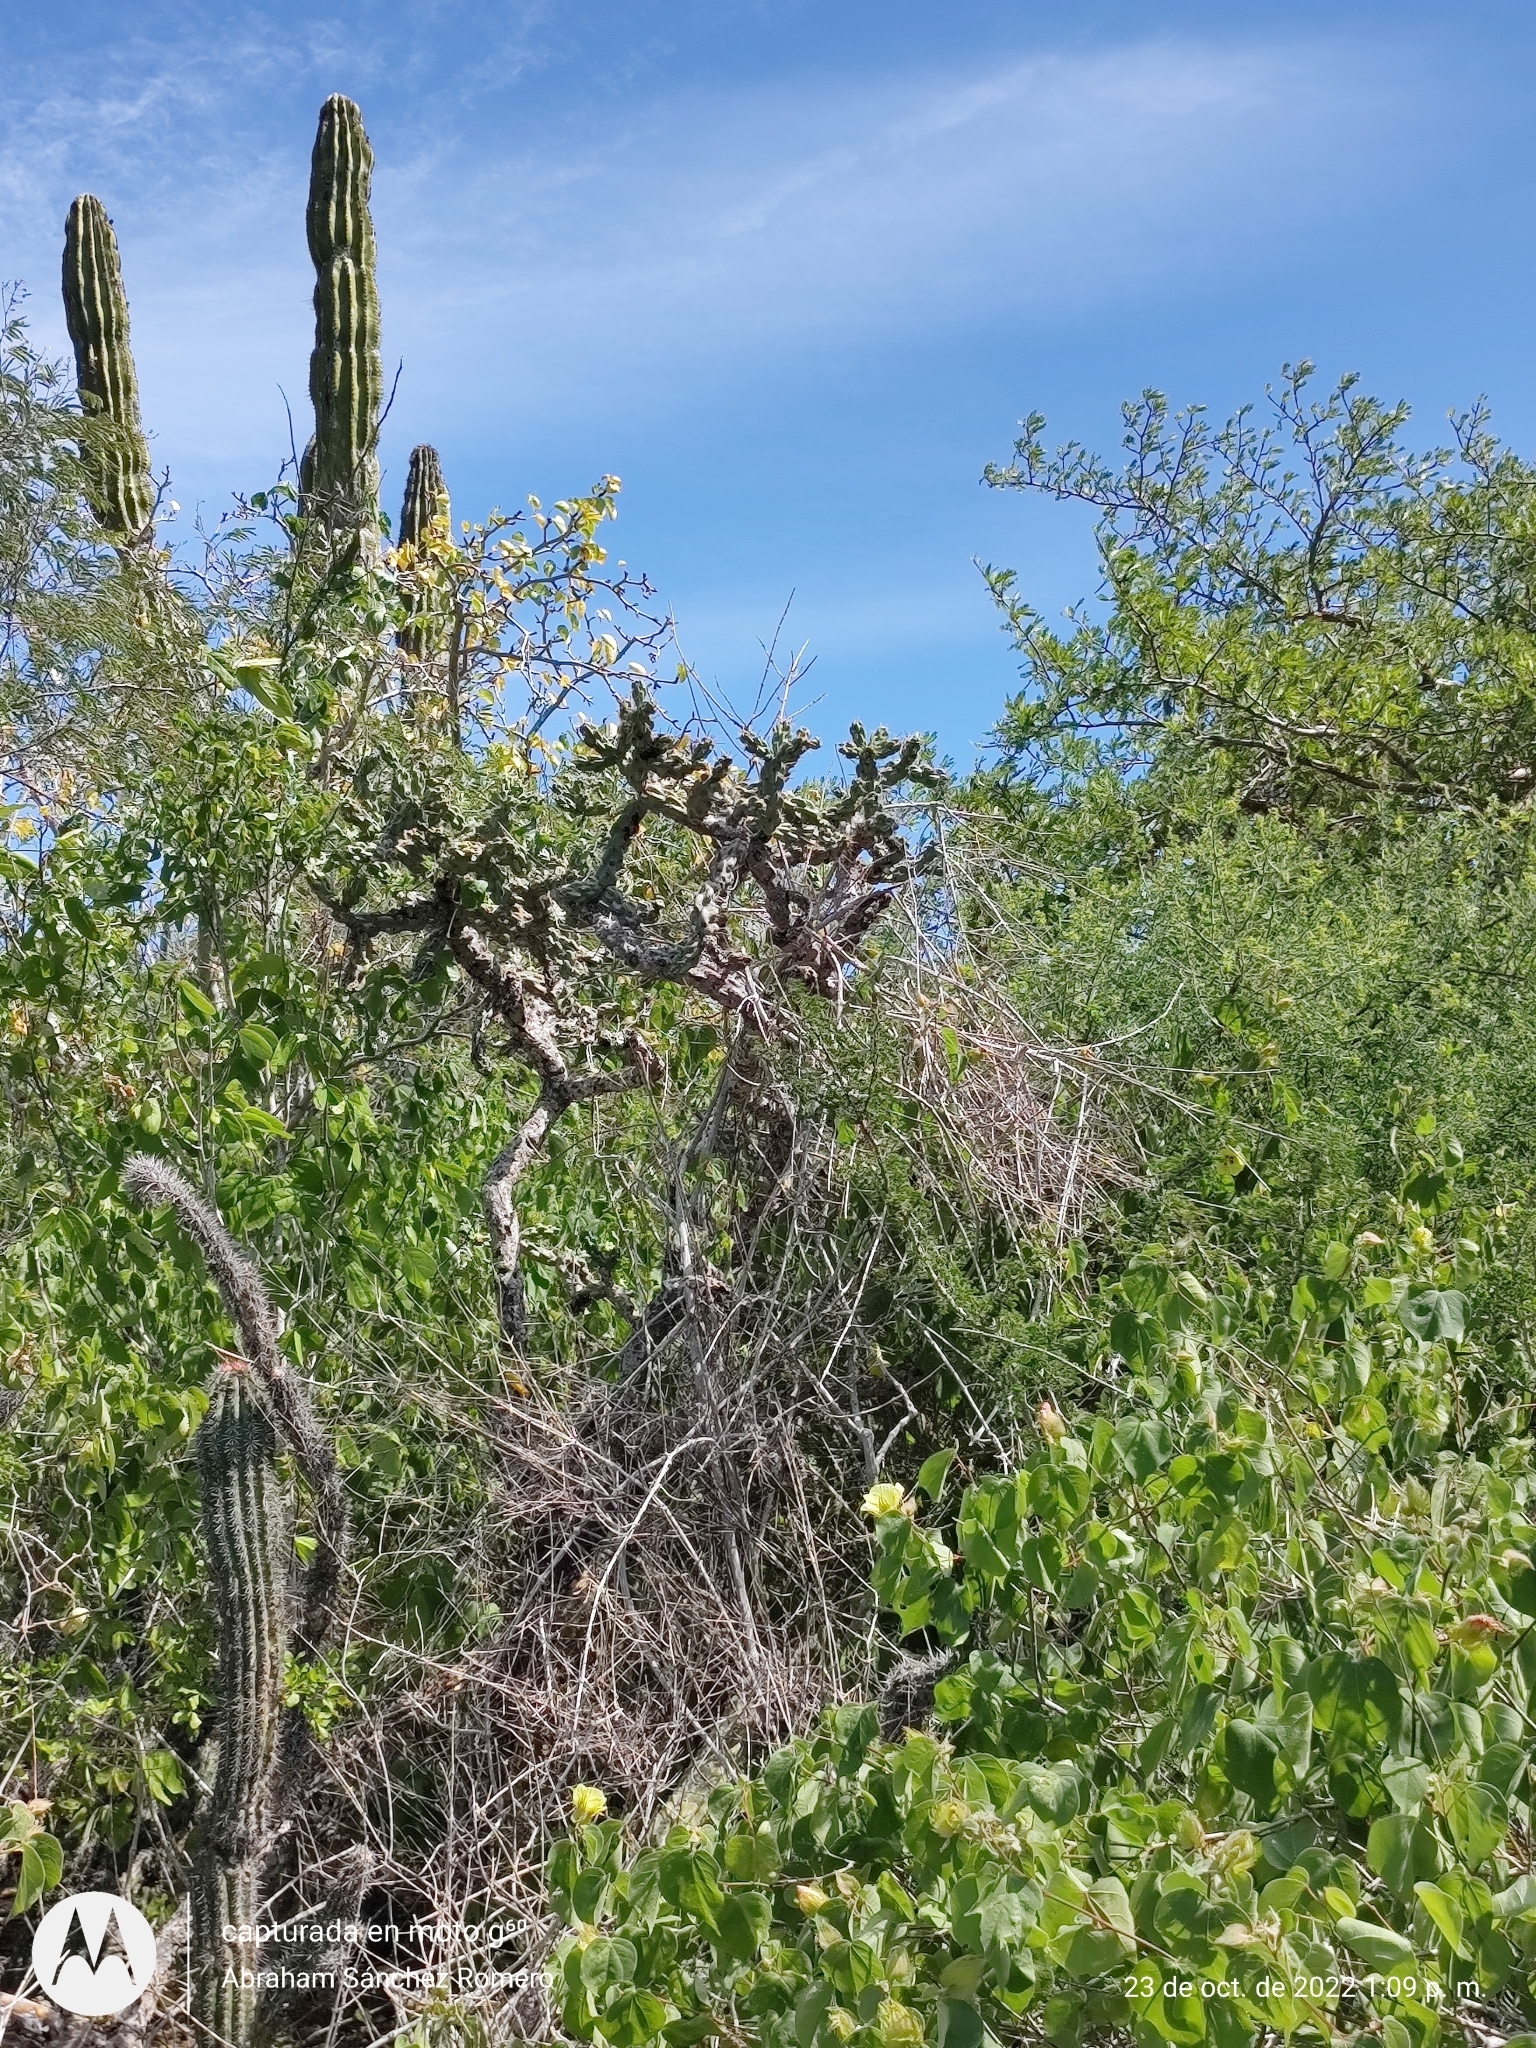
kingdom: Plantae
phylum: Tracheophyta
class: Magnoliopsida
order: Caryophyllales
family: Cactaceae
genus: Cylindropuntia
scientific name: Cylindropuntia cholla
